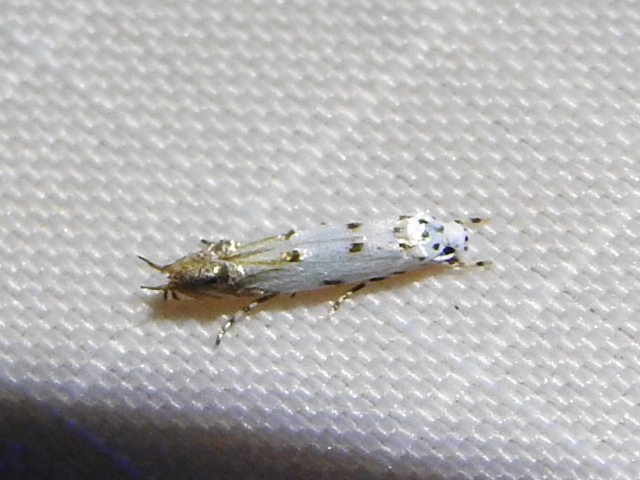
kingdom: Animalia
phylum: Arthropoda
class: Insecta
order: Lepidoptera
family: Momphidae
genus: Mompha
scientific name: Mompha eloisella
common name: Red-streaked mompha moth
